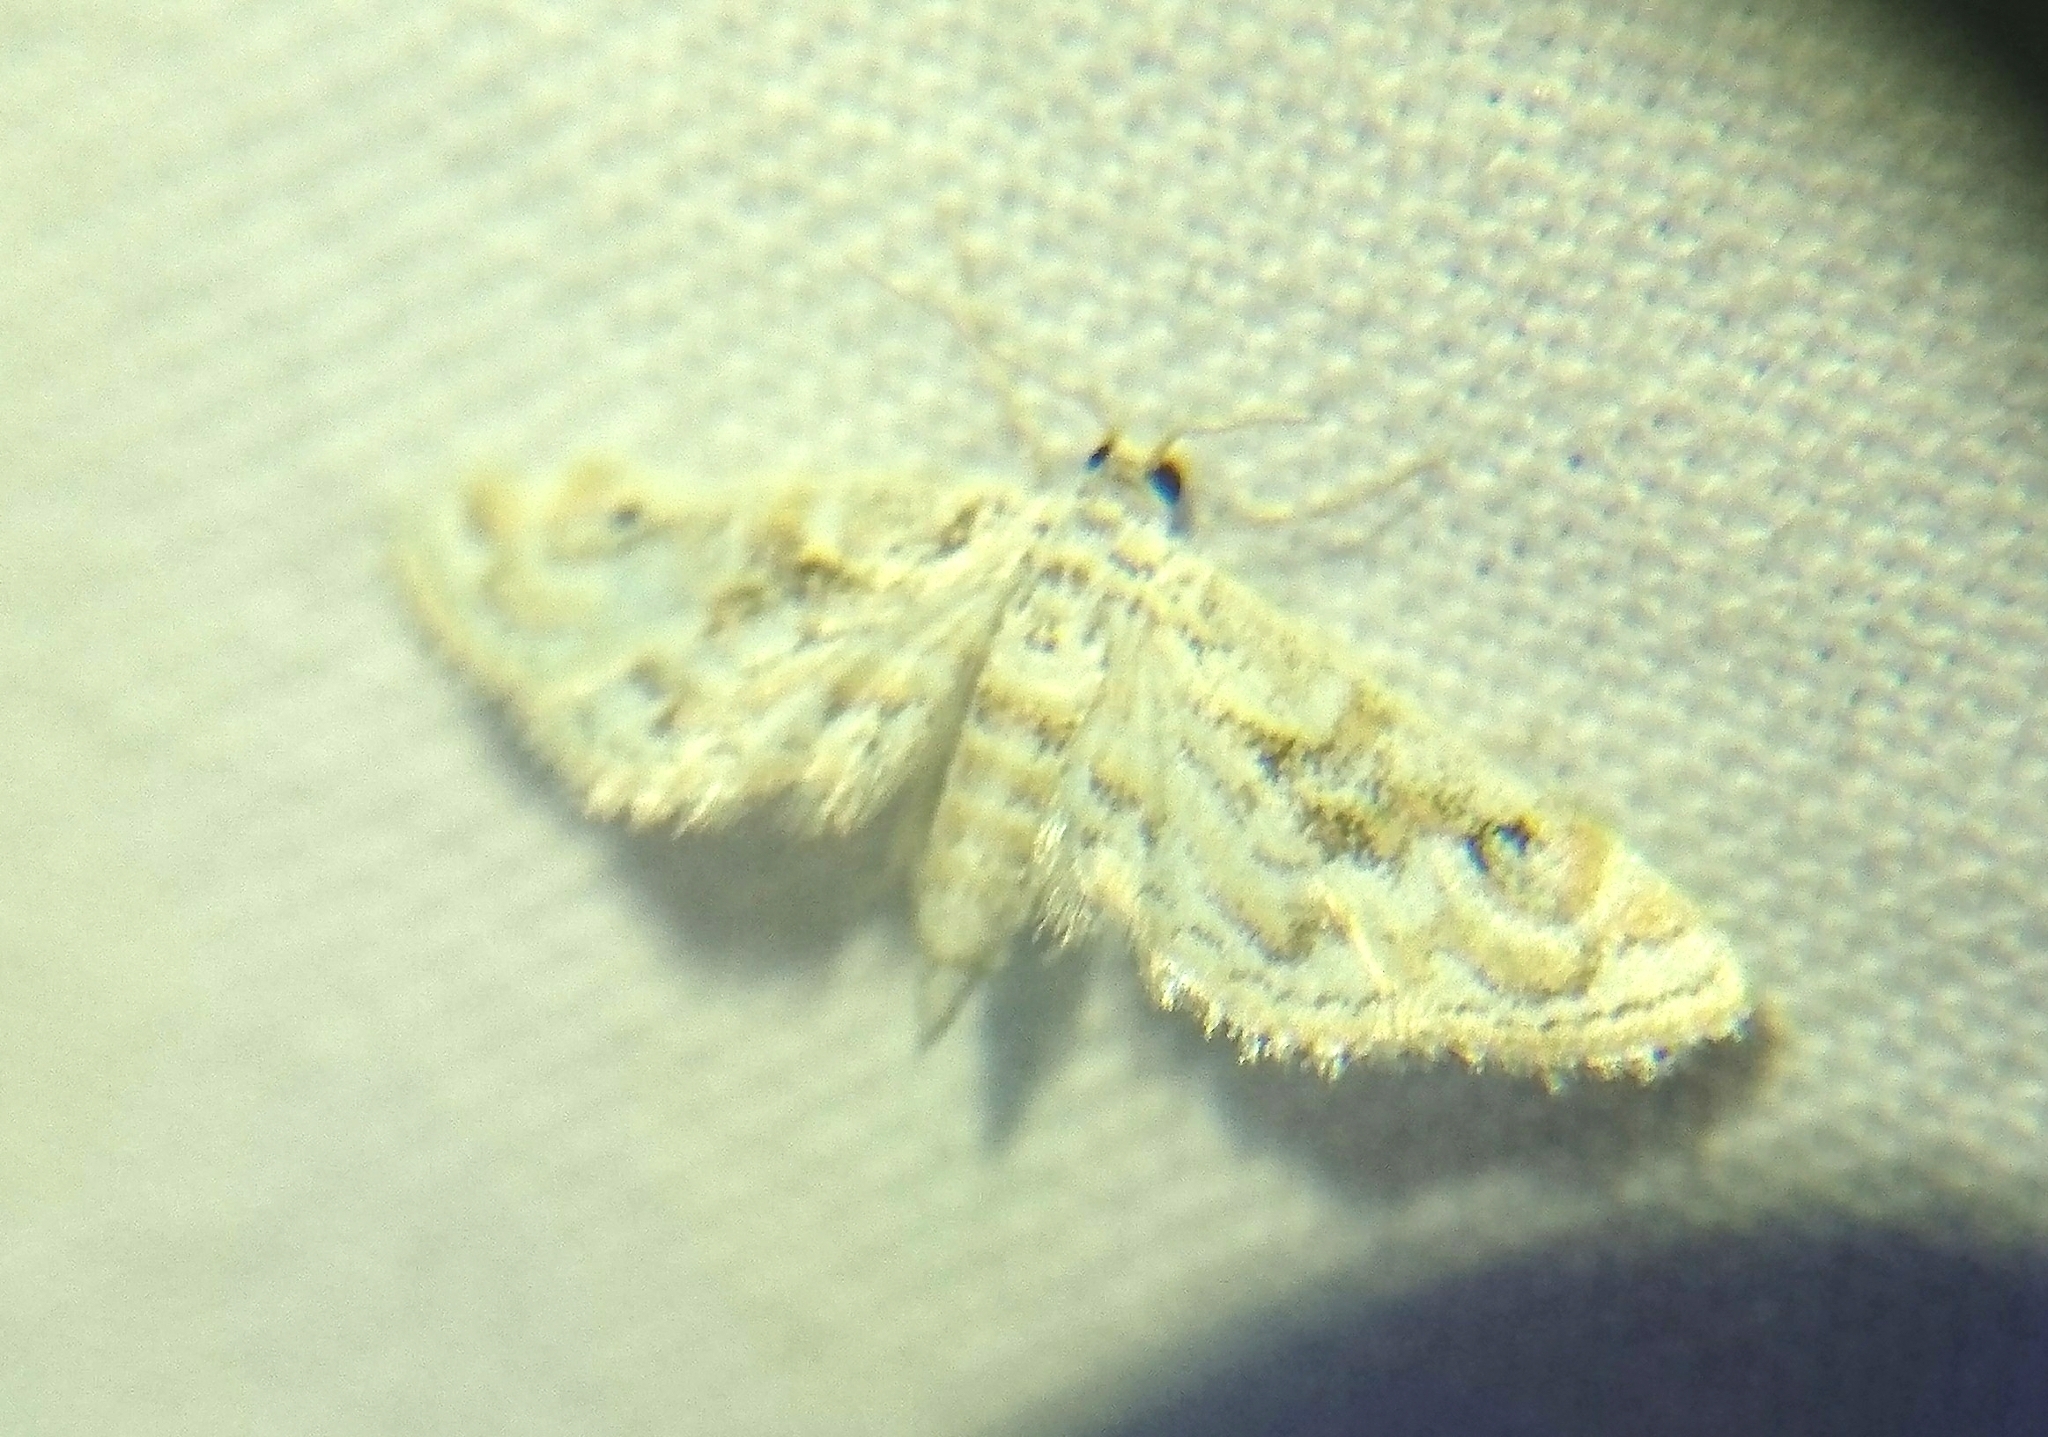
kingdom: Animalia
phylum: Arthropoda
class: Insecta
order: Lepidoptera
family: Crambidae
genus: Parapoynx
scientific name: Parapoynx diminutalis
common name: Hydrilla leafcutter
